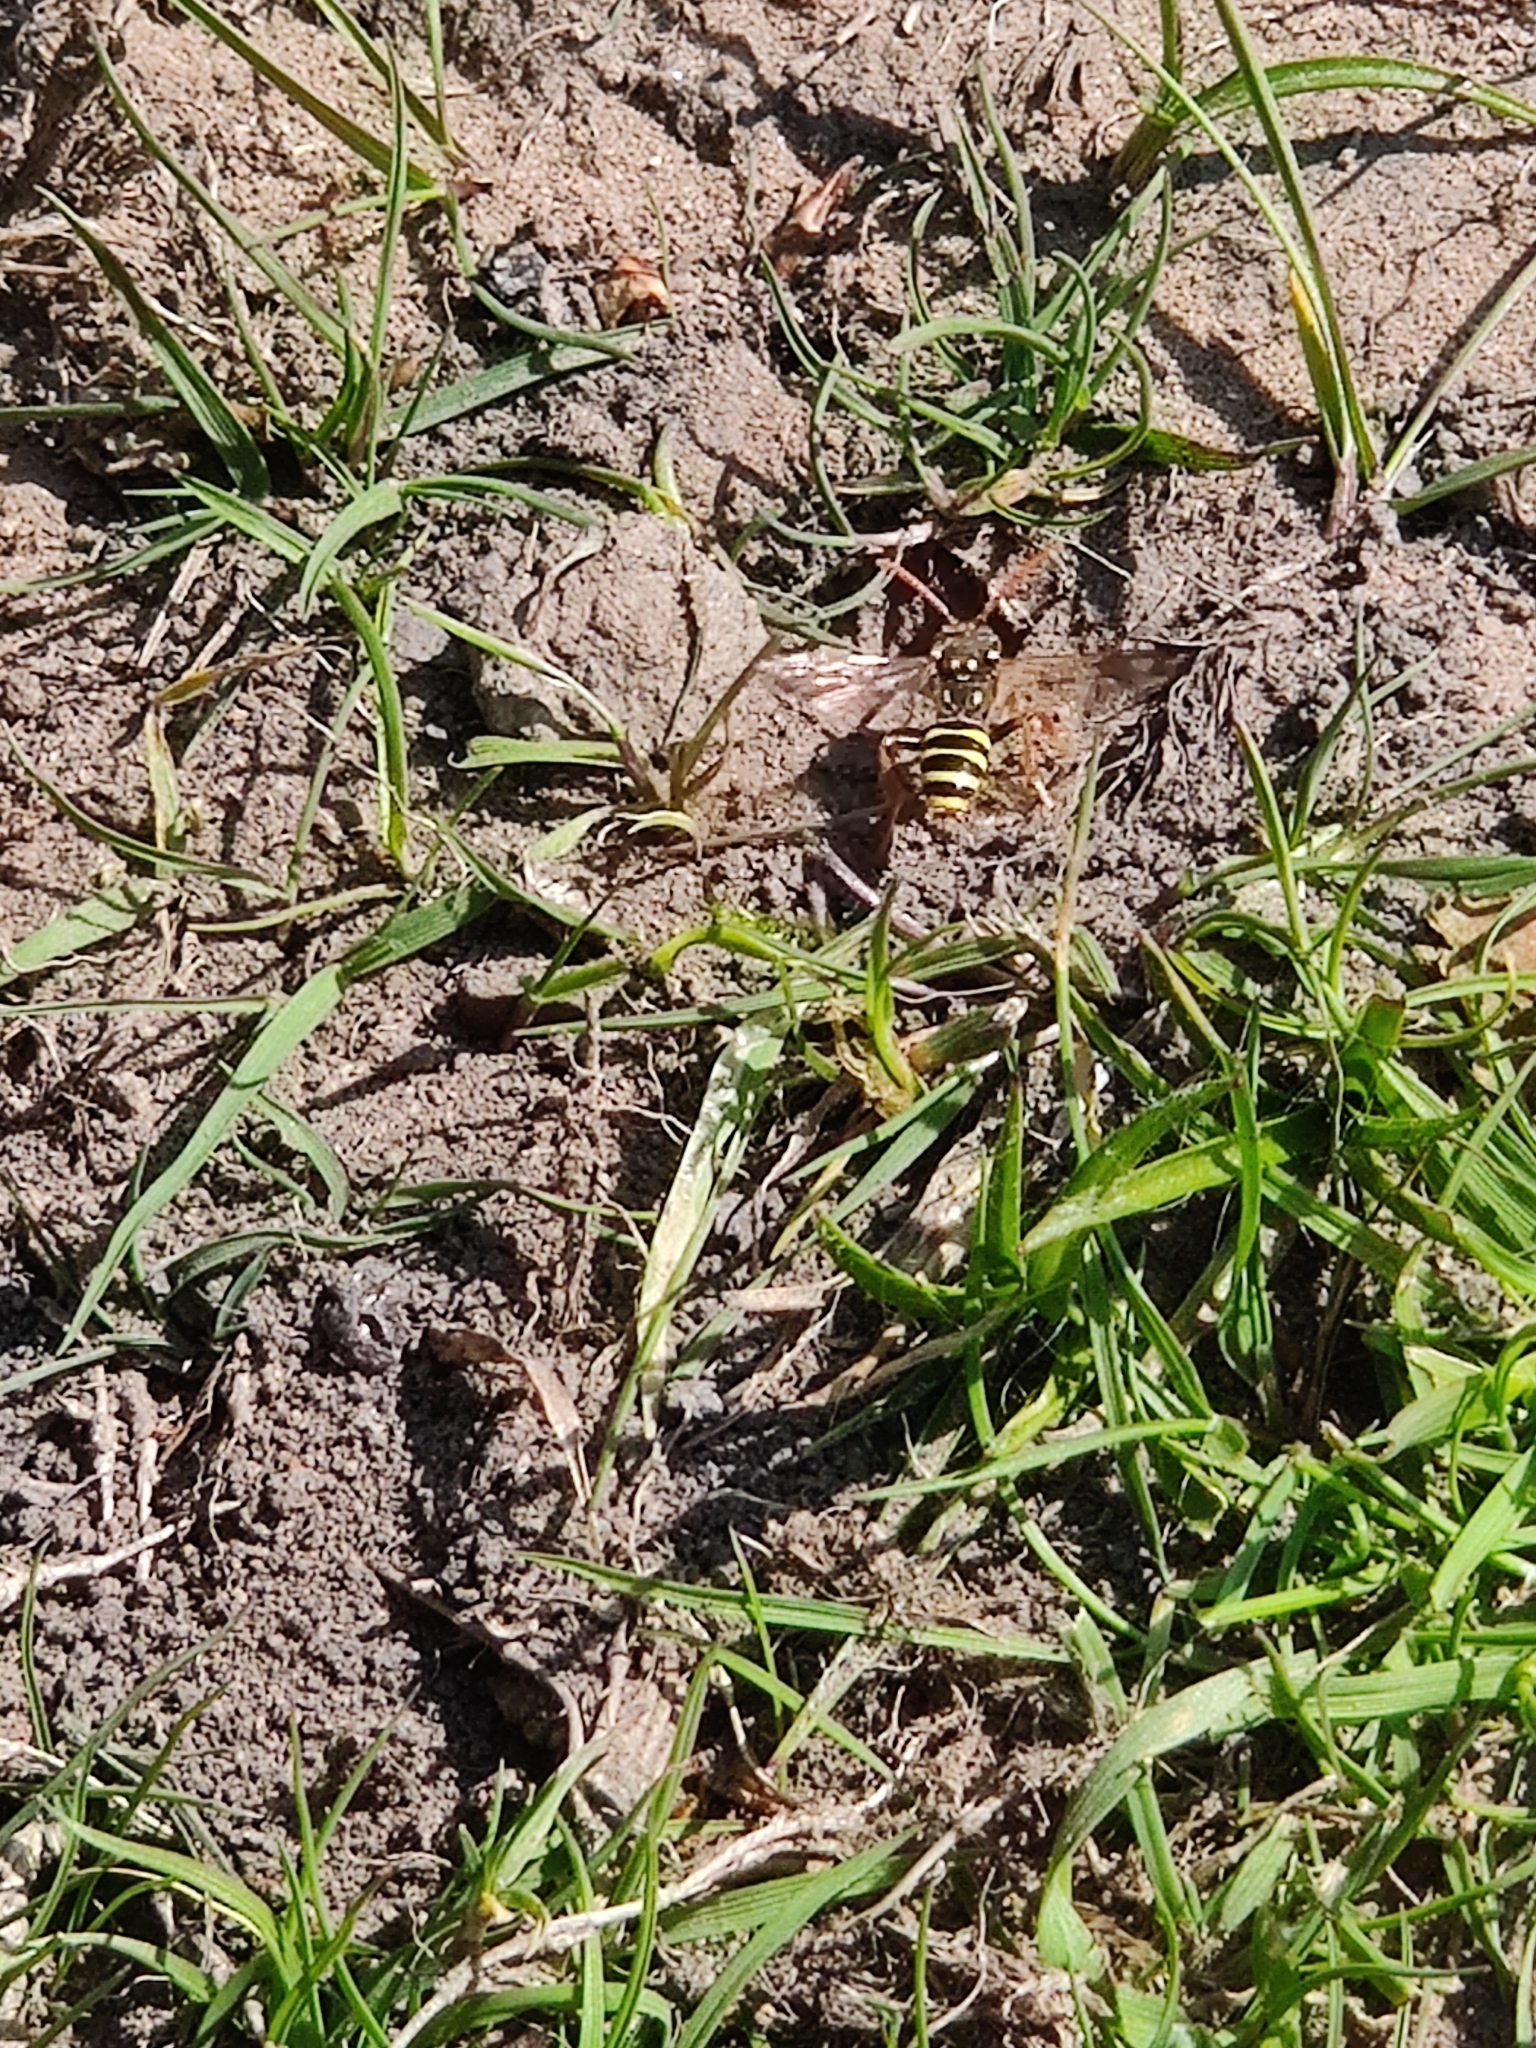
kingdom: Animalia
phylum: Arthropoda
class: Insecta
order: Hymenoptera
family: Apidae
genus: Nomada
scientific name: Nomada goodeniana
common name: Gooden's nomad bee
